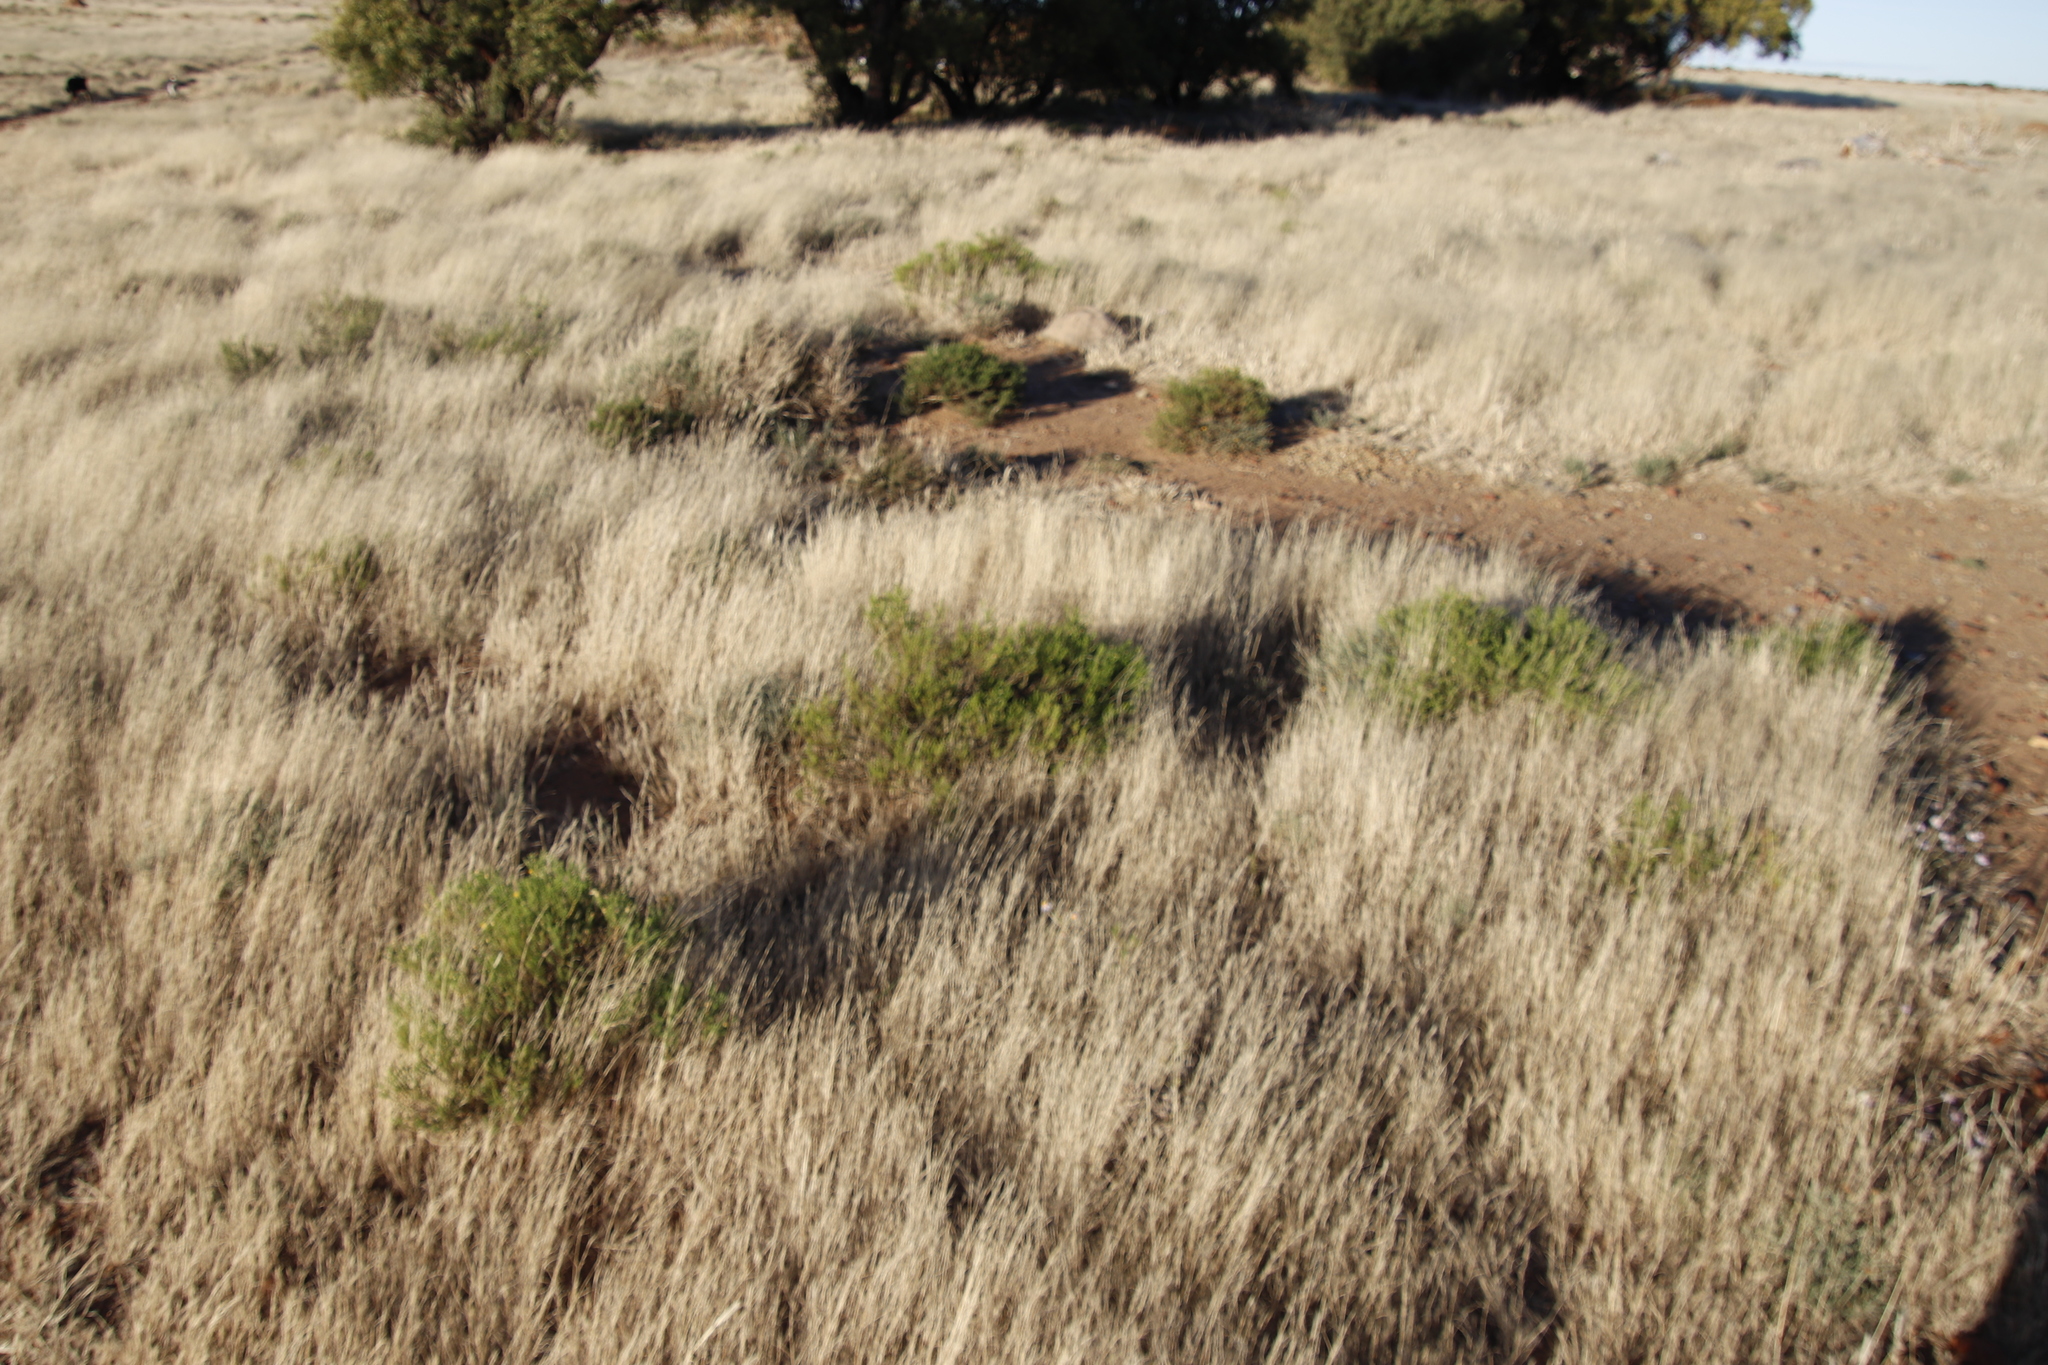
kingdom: Plantae
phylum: Tracheophyta
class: Magnoliopsida
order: Asterales
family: Asteraceae
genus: Chrysocoma
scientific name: Chrysocoma ciliata
